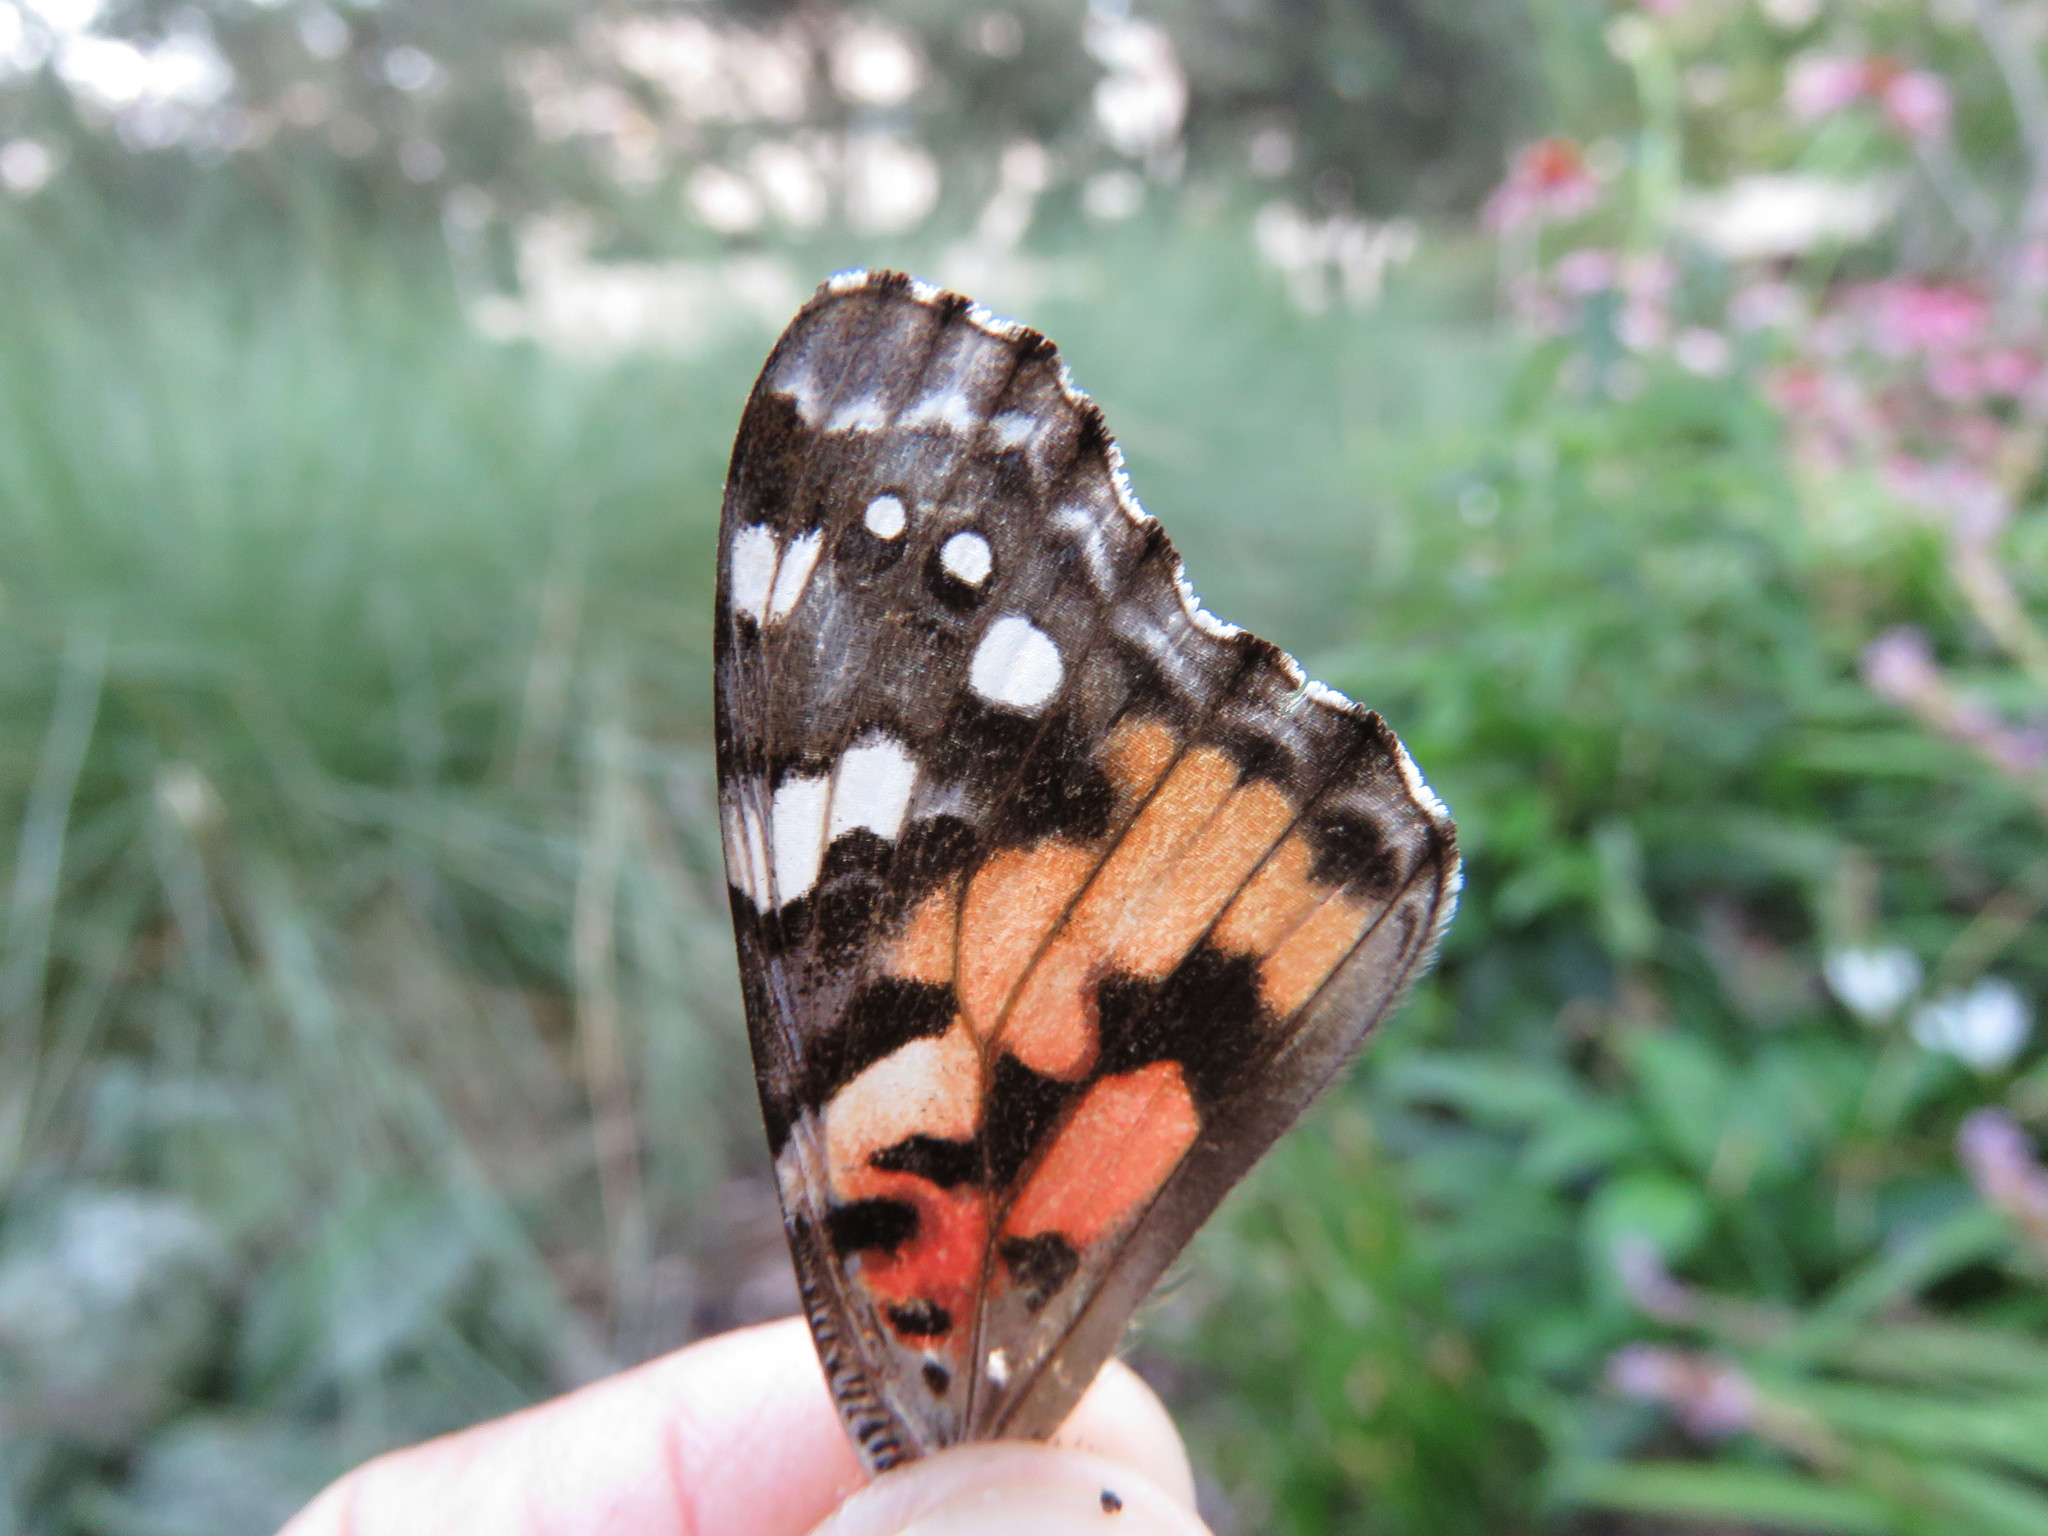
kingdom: Animalia
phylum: Arthropoda
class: Insecta
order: Lepidoptera
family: Nymphalidae
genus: Vanessa
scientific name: Vanessa cardui
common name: Painted lady
